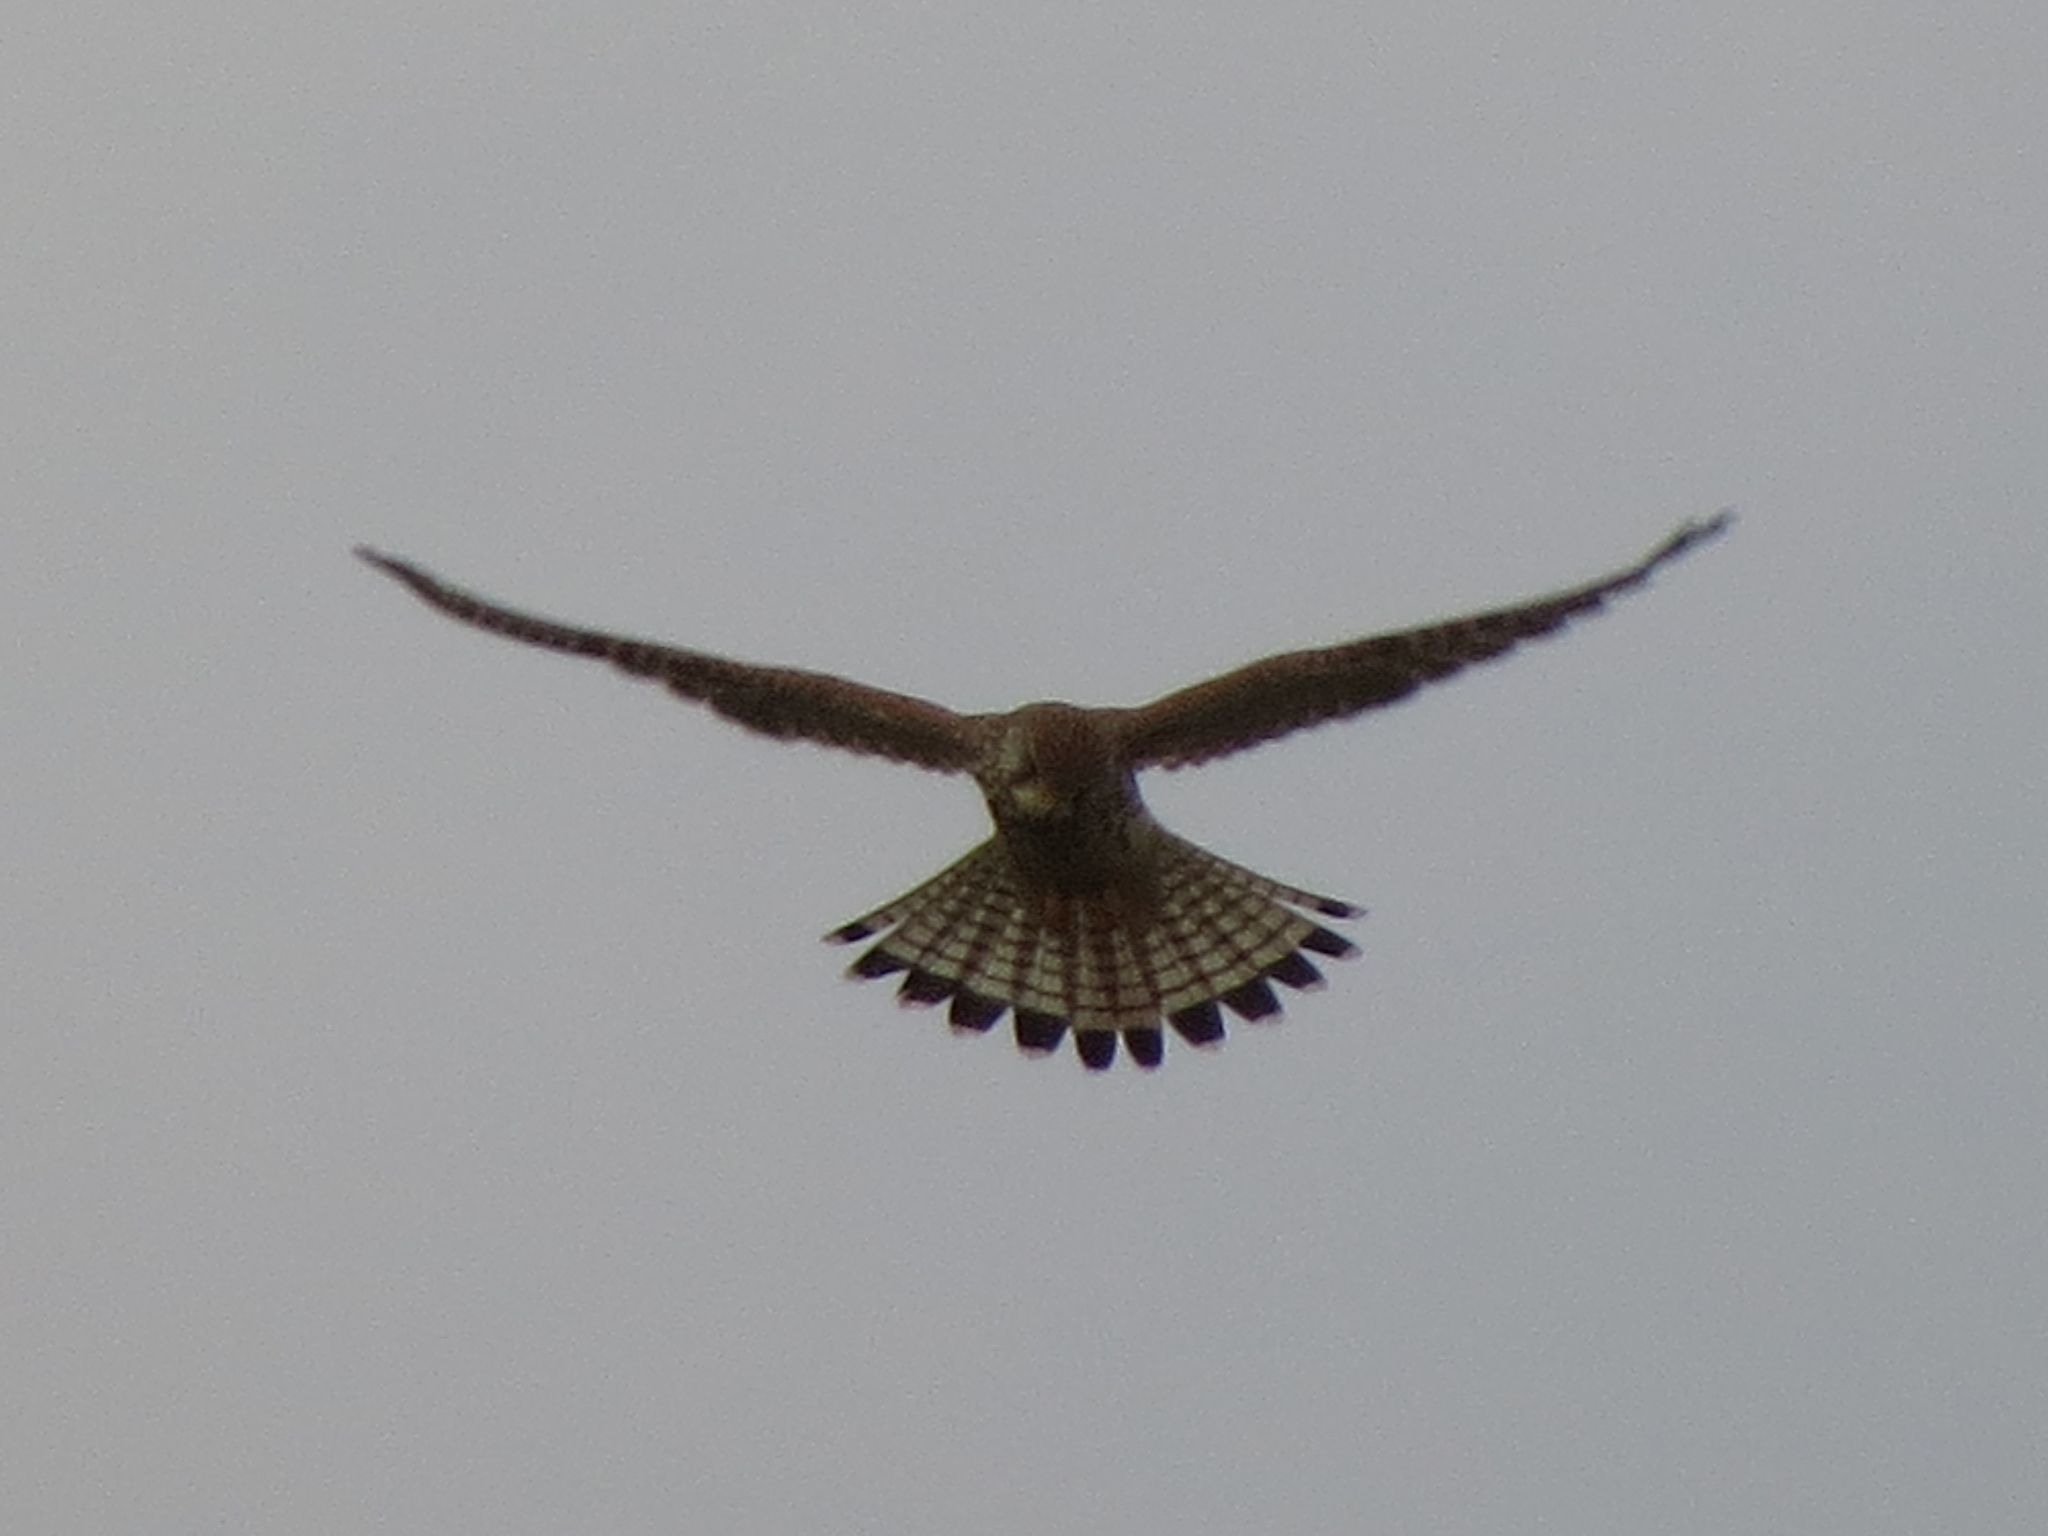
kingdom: Animalia
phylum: Chordata
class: Aves
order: Falconiformes
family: Falconidae
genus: Falco
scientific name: Falco tinnunculus
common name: Common kestrel
